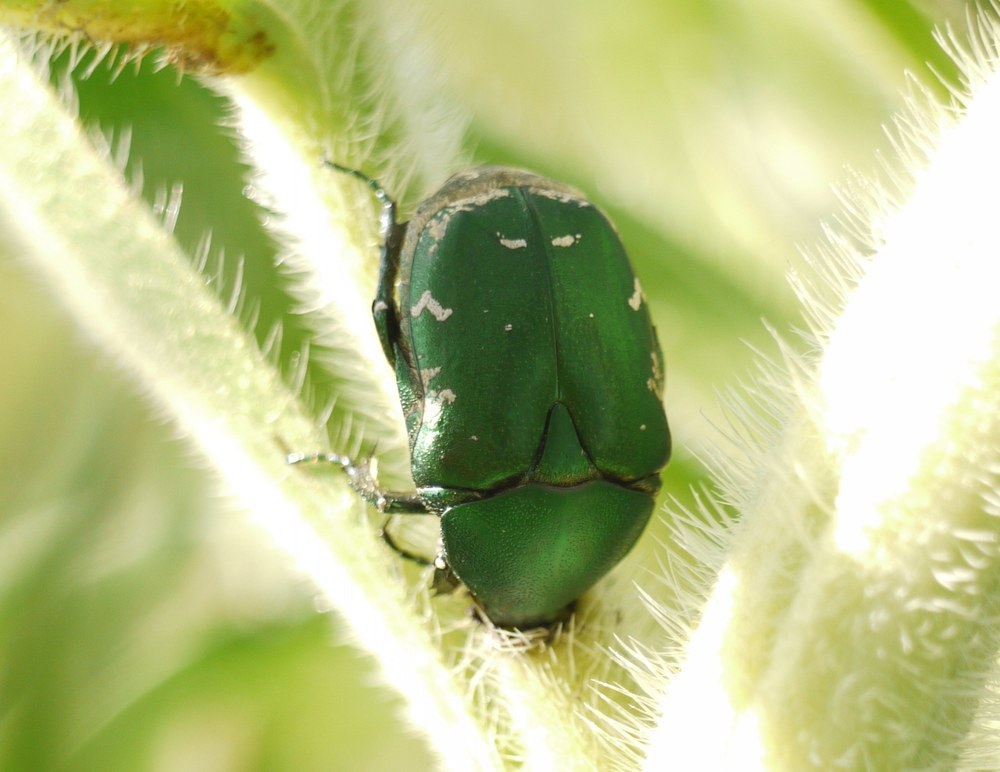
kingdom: Animalia
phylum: Arthropoda
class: Insecta
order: Coleoptera
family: Scarabaeidae
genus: Protaetia
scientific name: Protaetia ungarica
